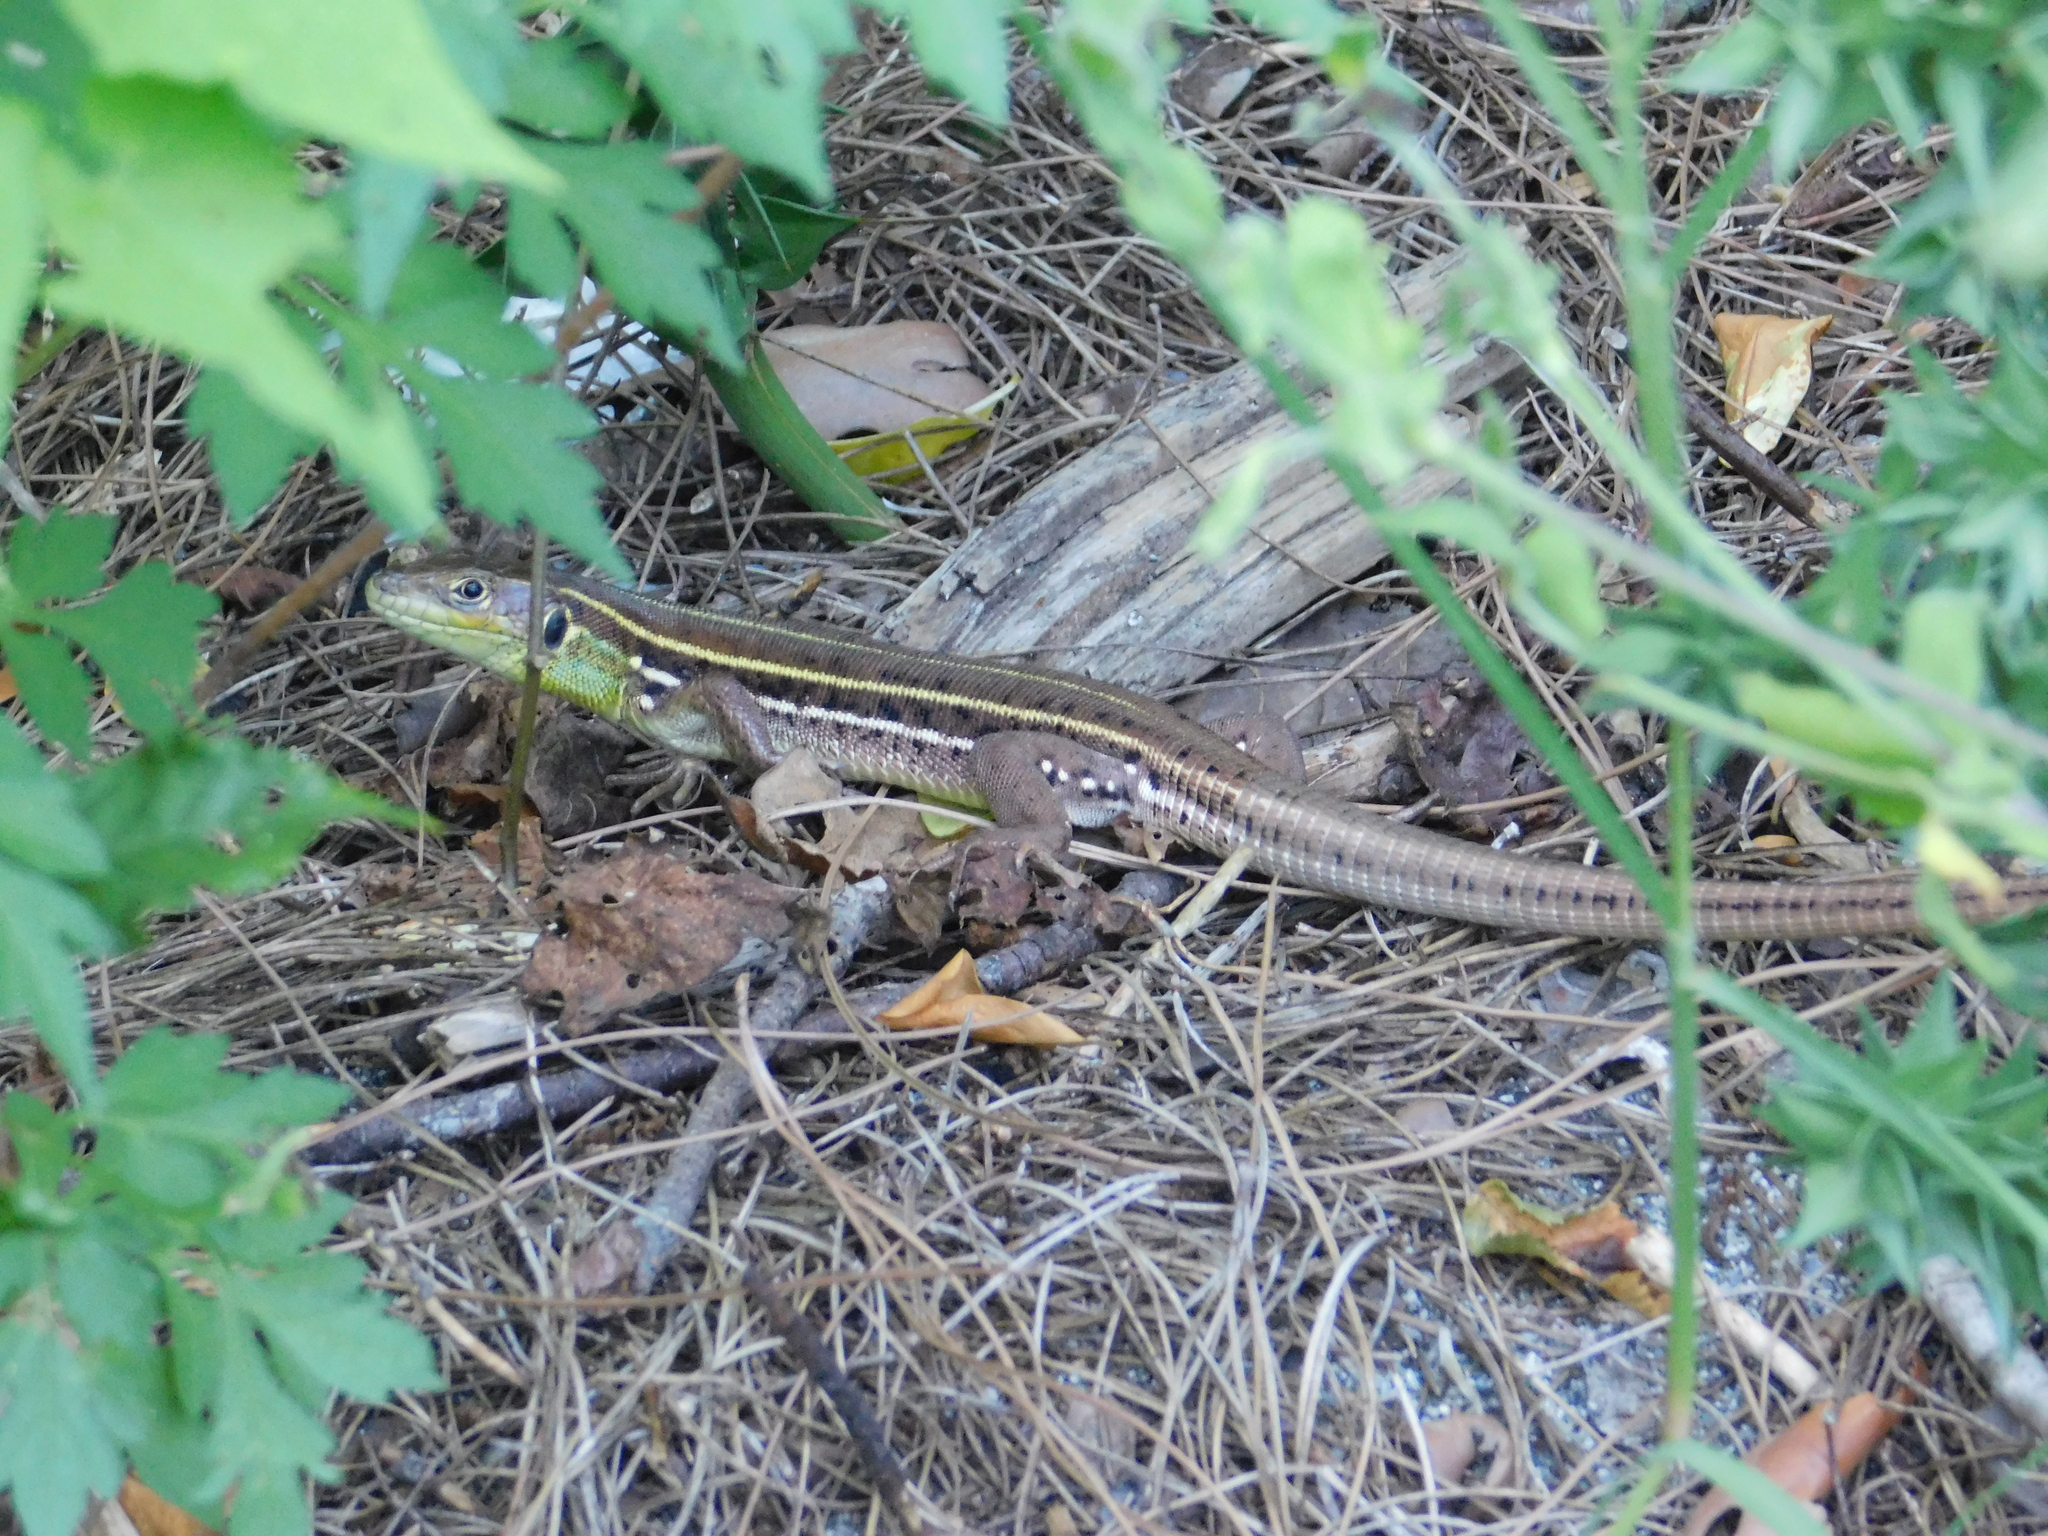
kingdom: Animalia
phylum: Chordata
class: Squamata
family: Lacertidae
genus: Lacerta
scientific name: Lacerta media
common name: Medium lizard
